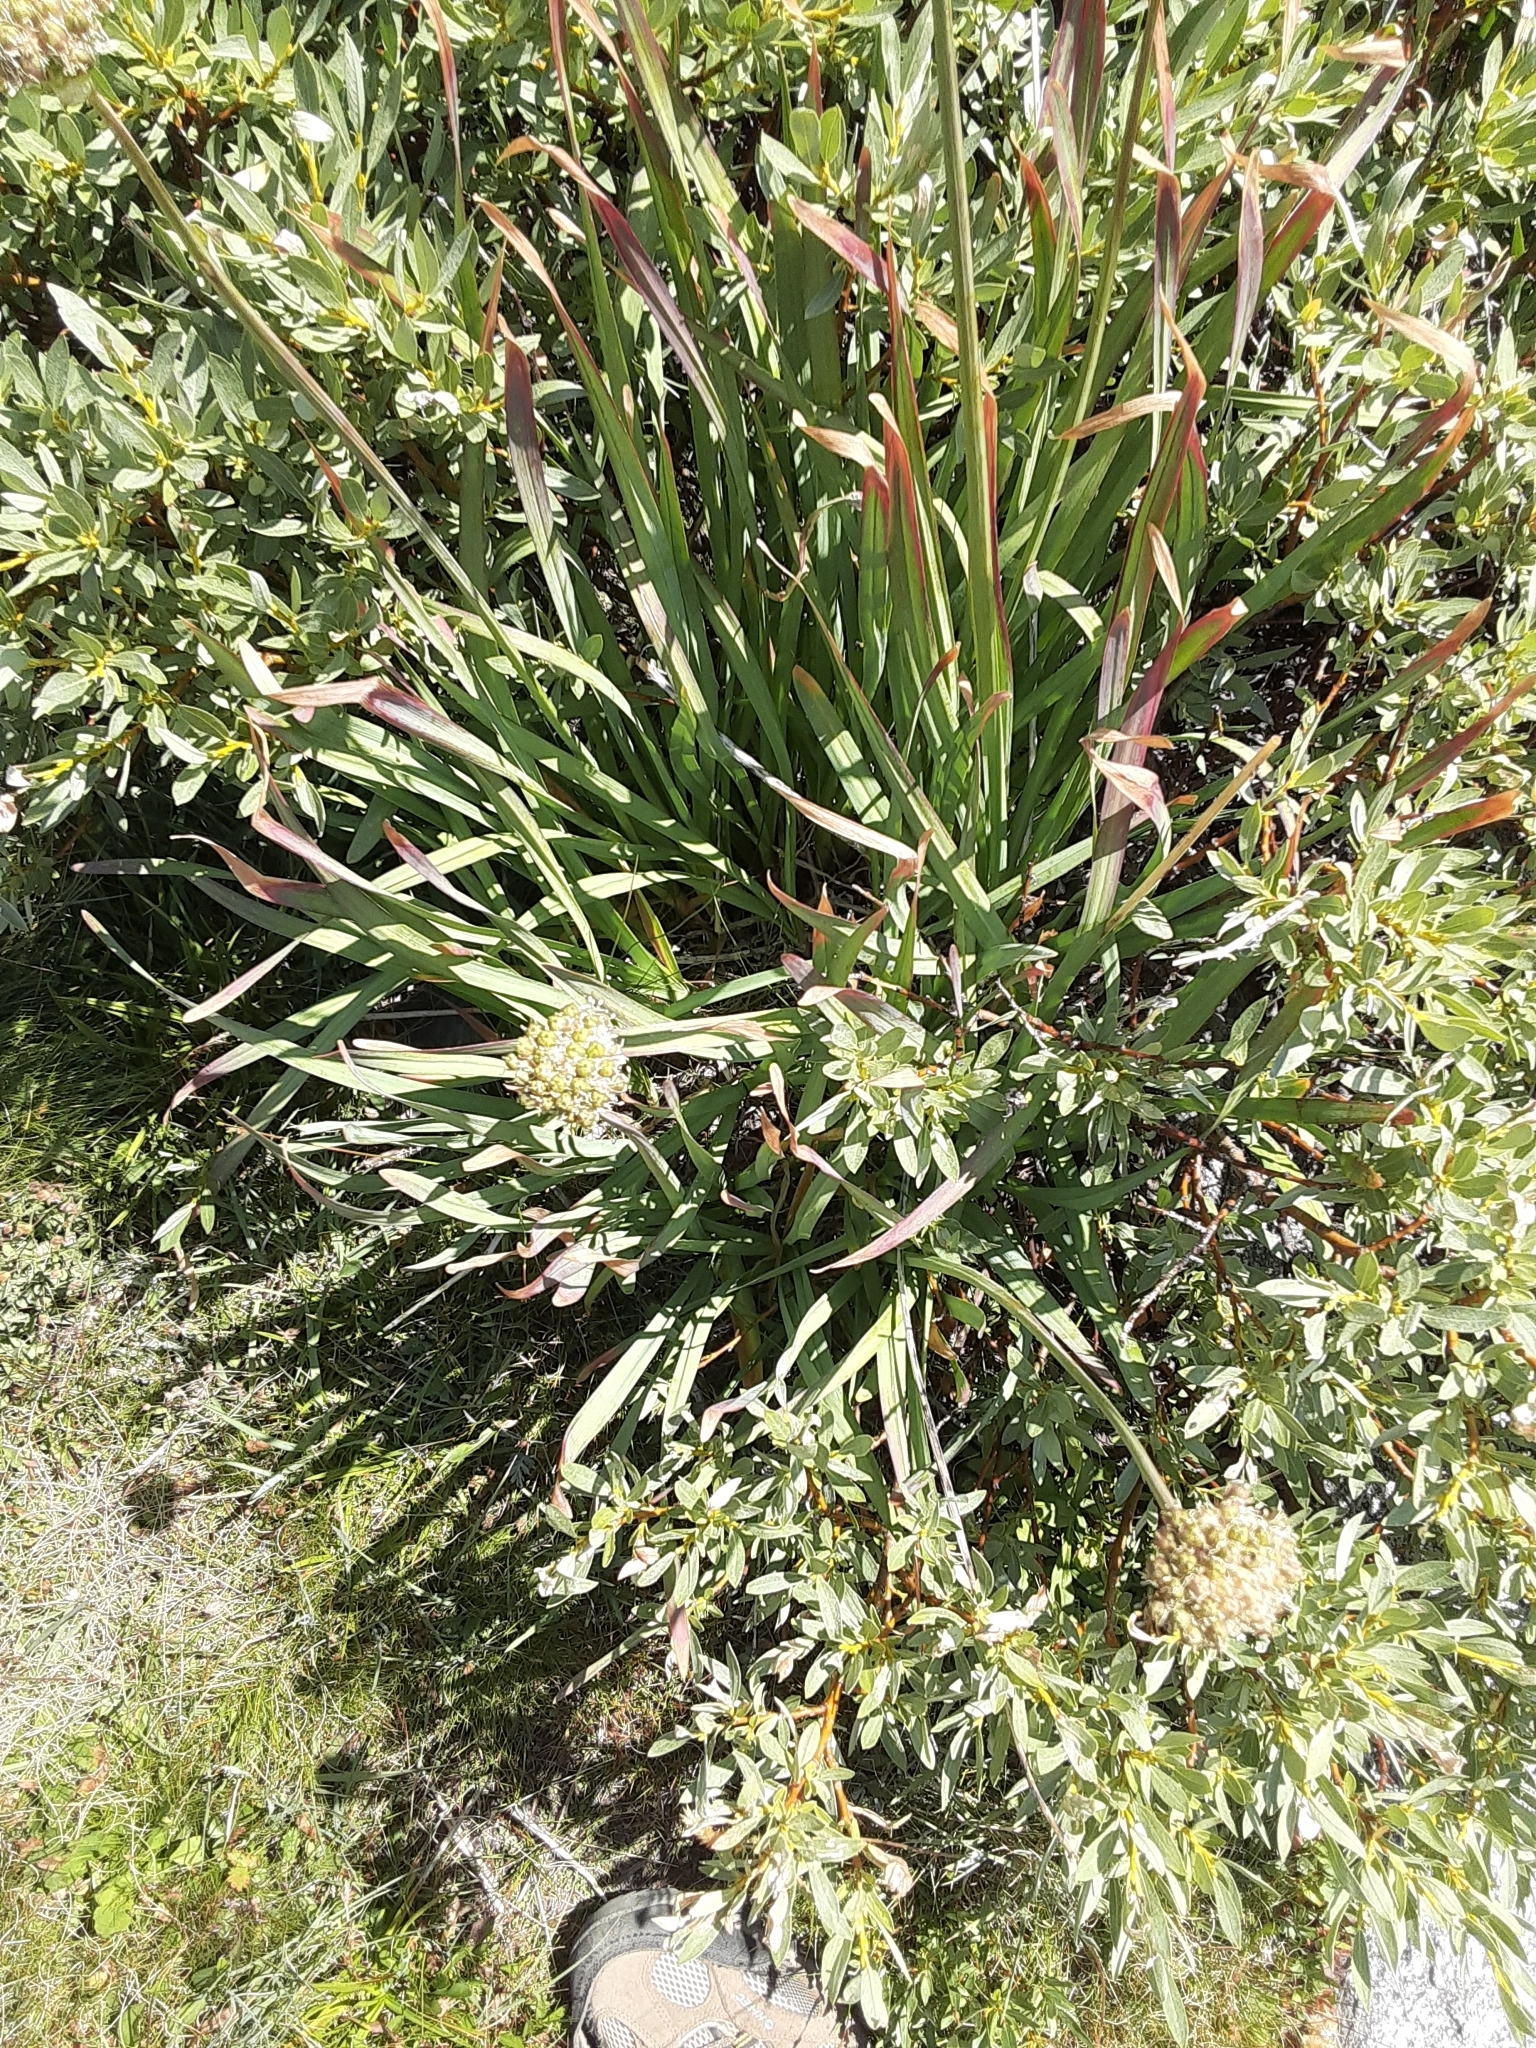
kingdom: Plantae
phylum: Tracheophyta
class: Liliopsida
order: Asparagales
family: Amaryllidaceae
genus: Allium
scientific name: Allium validum
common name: Pacific mountain onion
